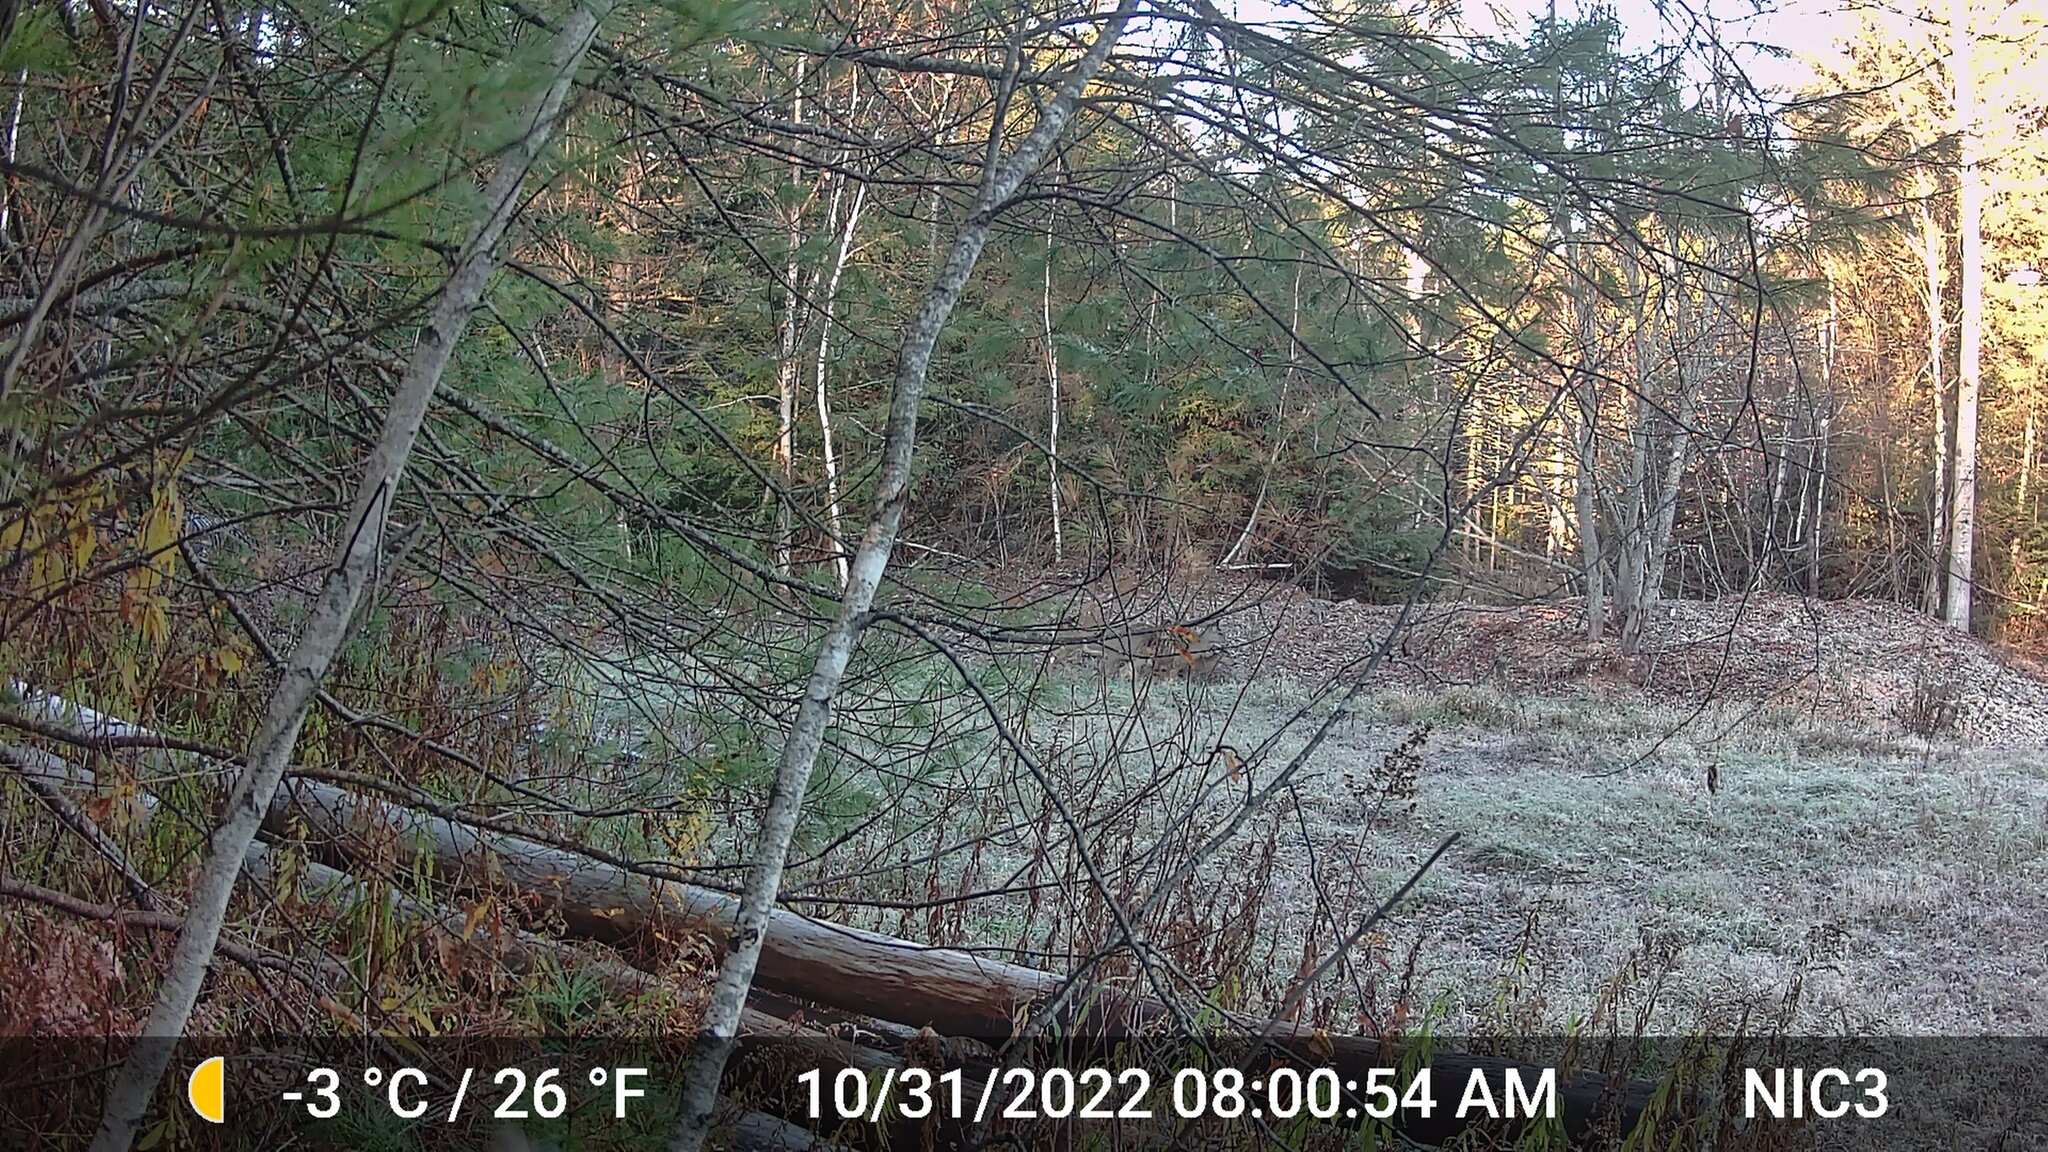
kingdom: Animalia
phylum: Chordata
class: Mammalia
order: Artiodactyla
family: Cervidae
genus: Odocoileus
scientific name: Odocoileus virginianus
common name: White-tailed deer
